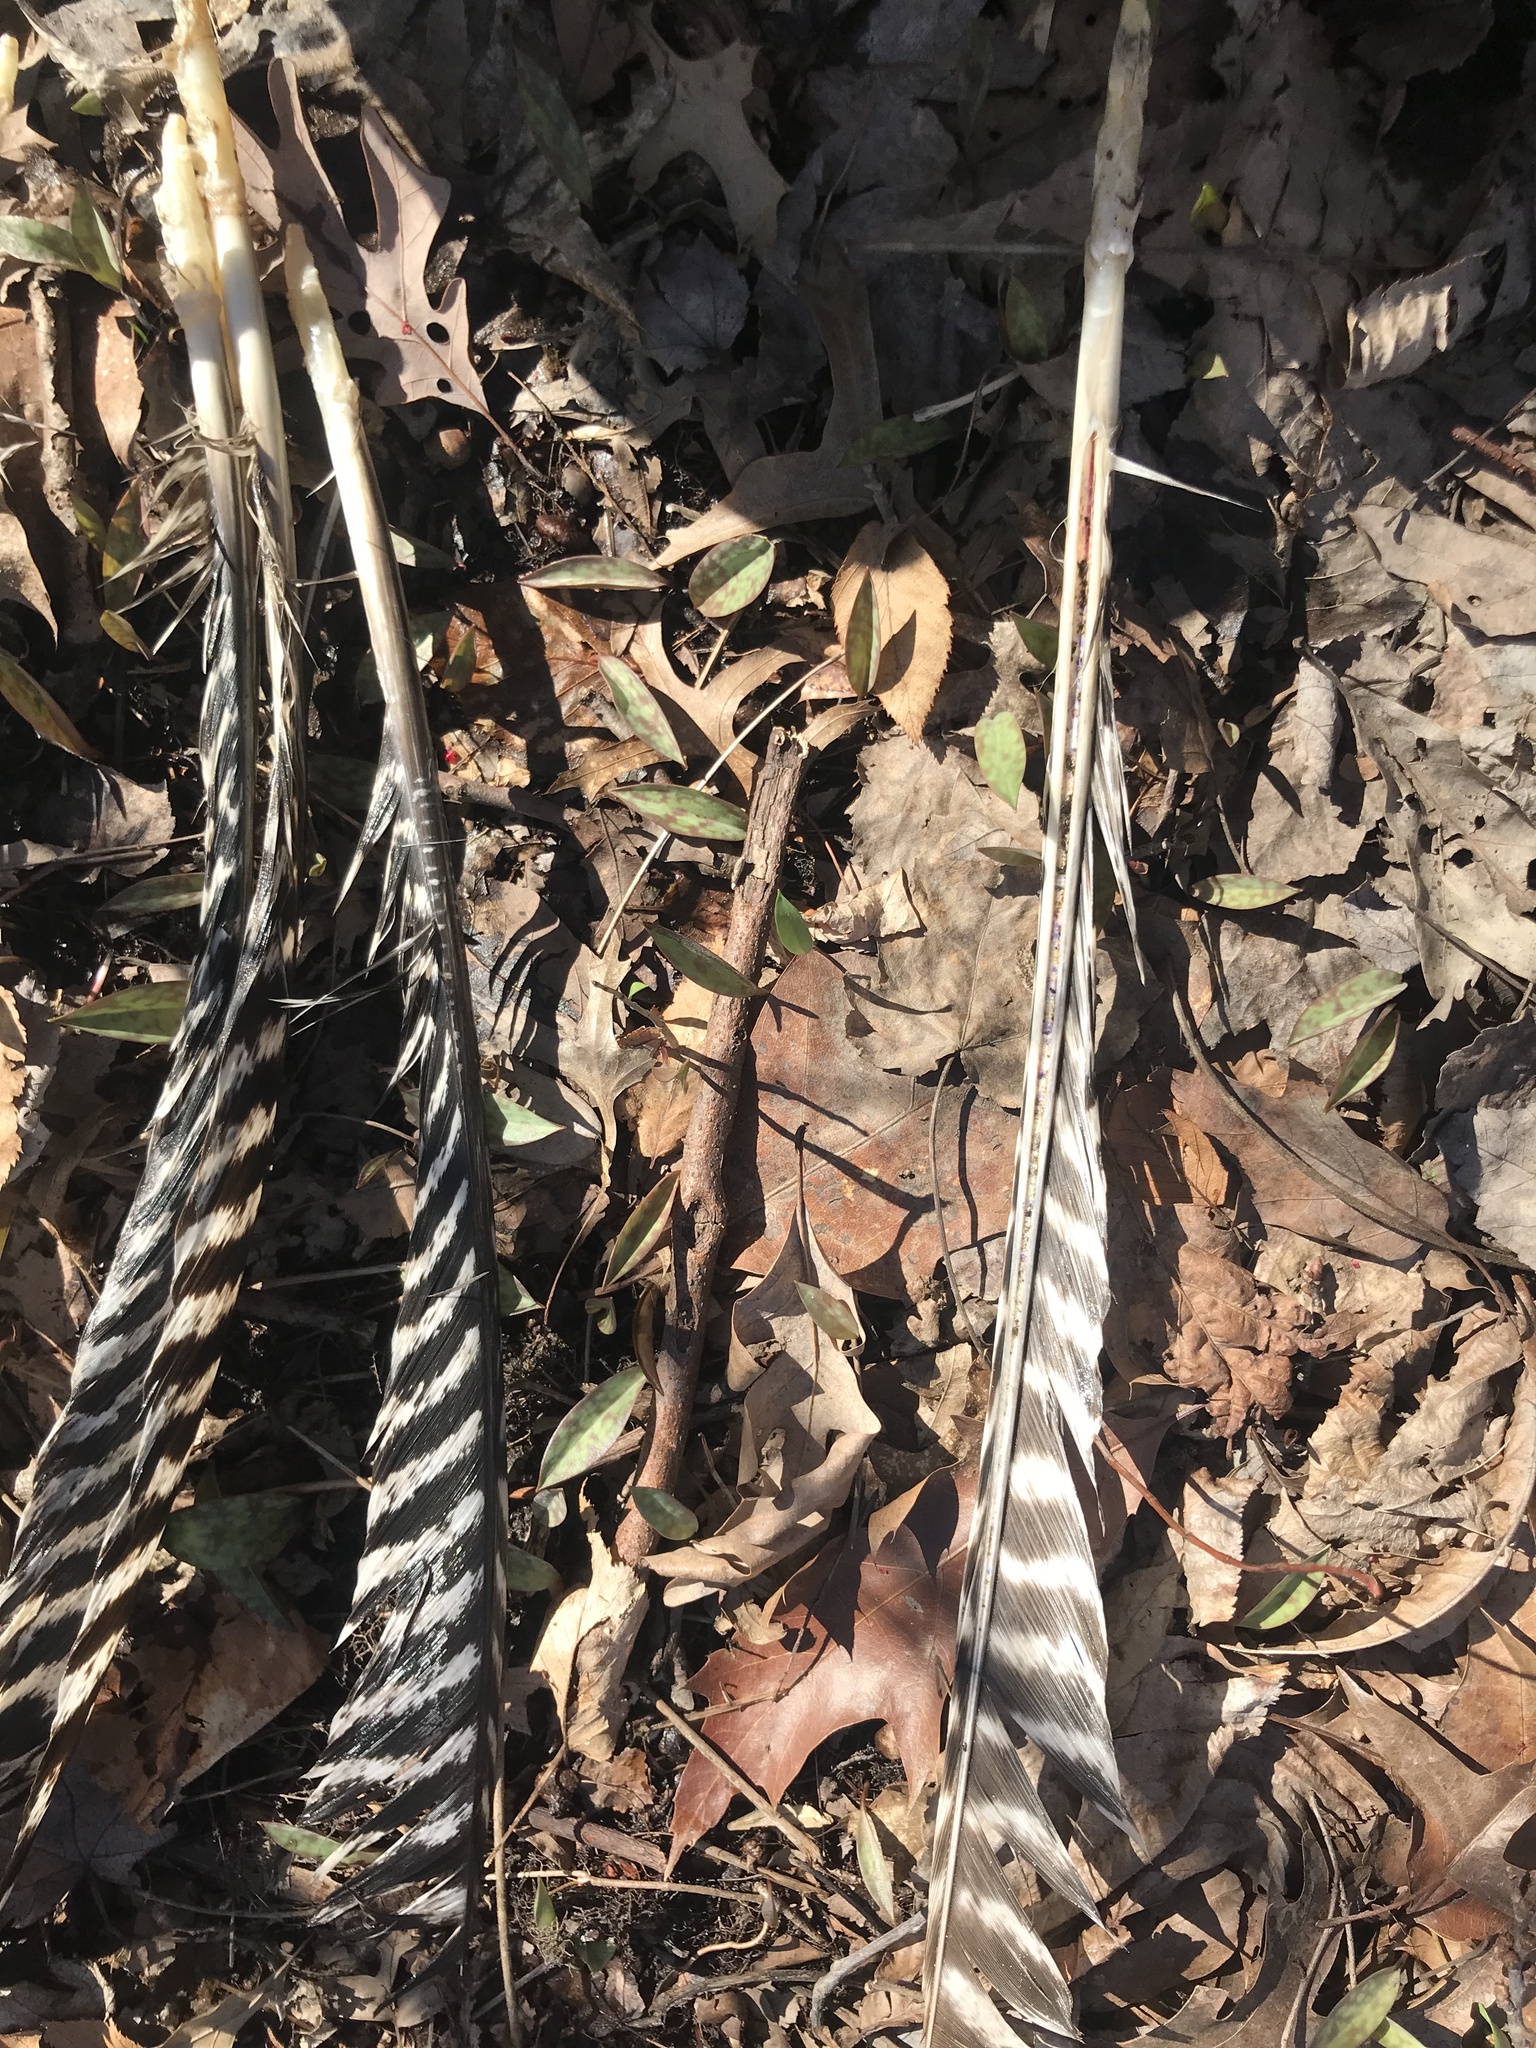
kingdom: Animalia
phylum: Chordata
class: Aves
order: Galliformes
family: Phasianidae
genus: Meleagris
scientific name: Meleagris gallopavo
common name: Wild turkey
